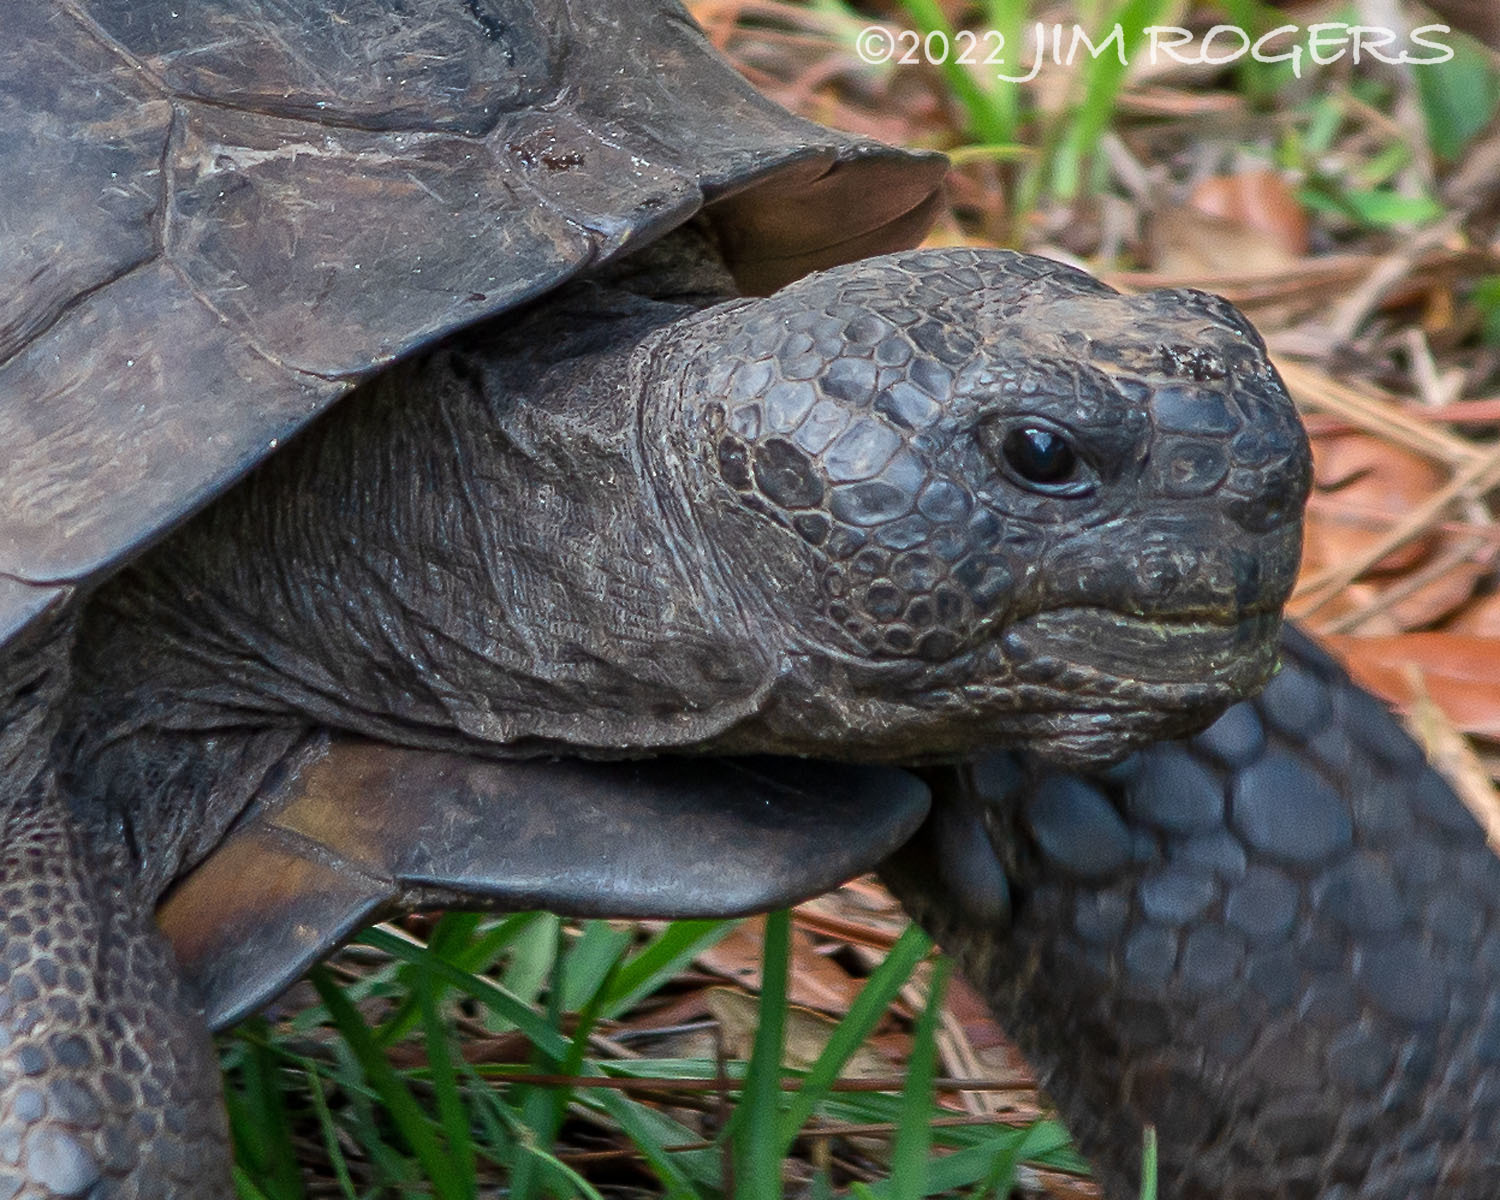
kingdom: Animalia
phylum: Chordata
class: Testudines
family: Testudinidae
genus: Gopherus
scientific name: Gopherus polyphemus
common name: Florida gopher tortoise
